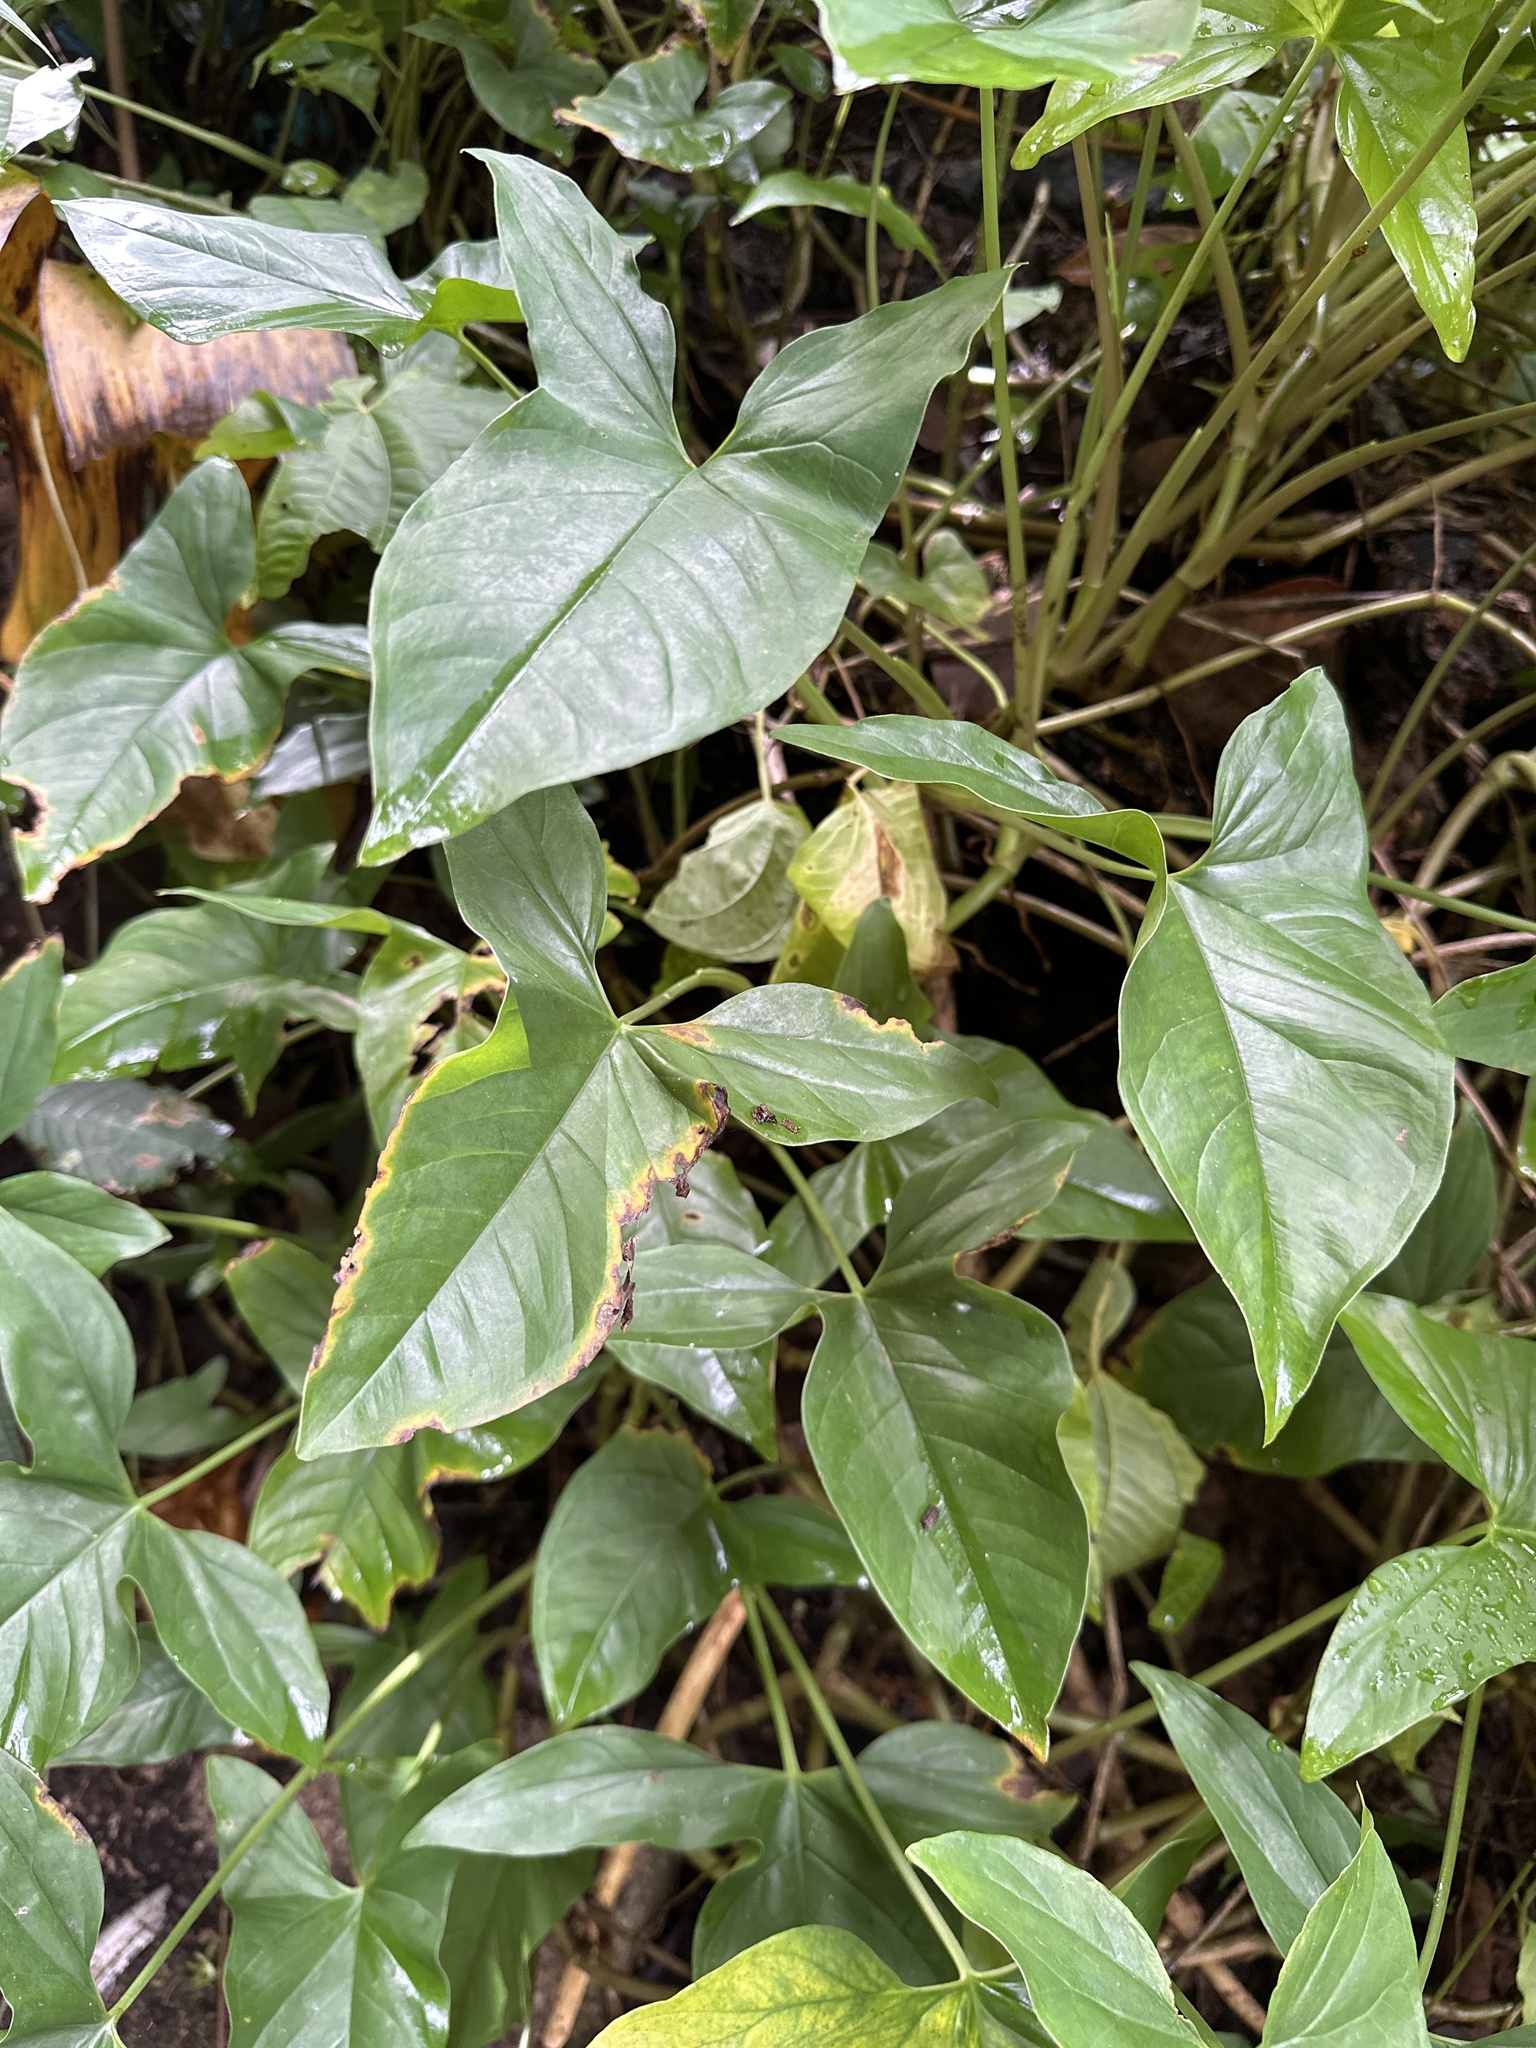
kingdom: Plantae
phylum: Tracheophyta
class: Liliopsida
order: Alismatales
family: Araceae
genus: Syngonium
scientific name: Syngonium podophyllum
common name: American evergreen
